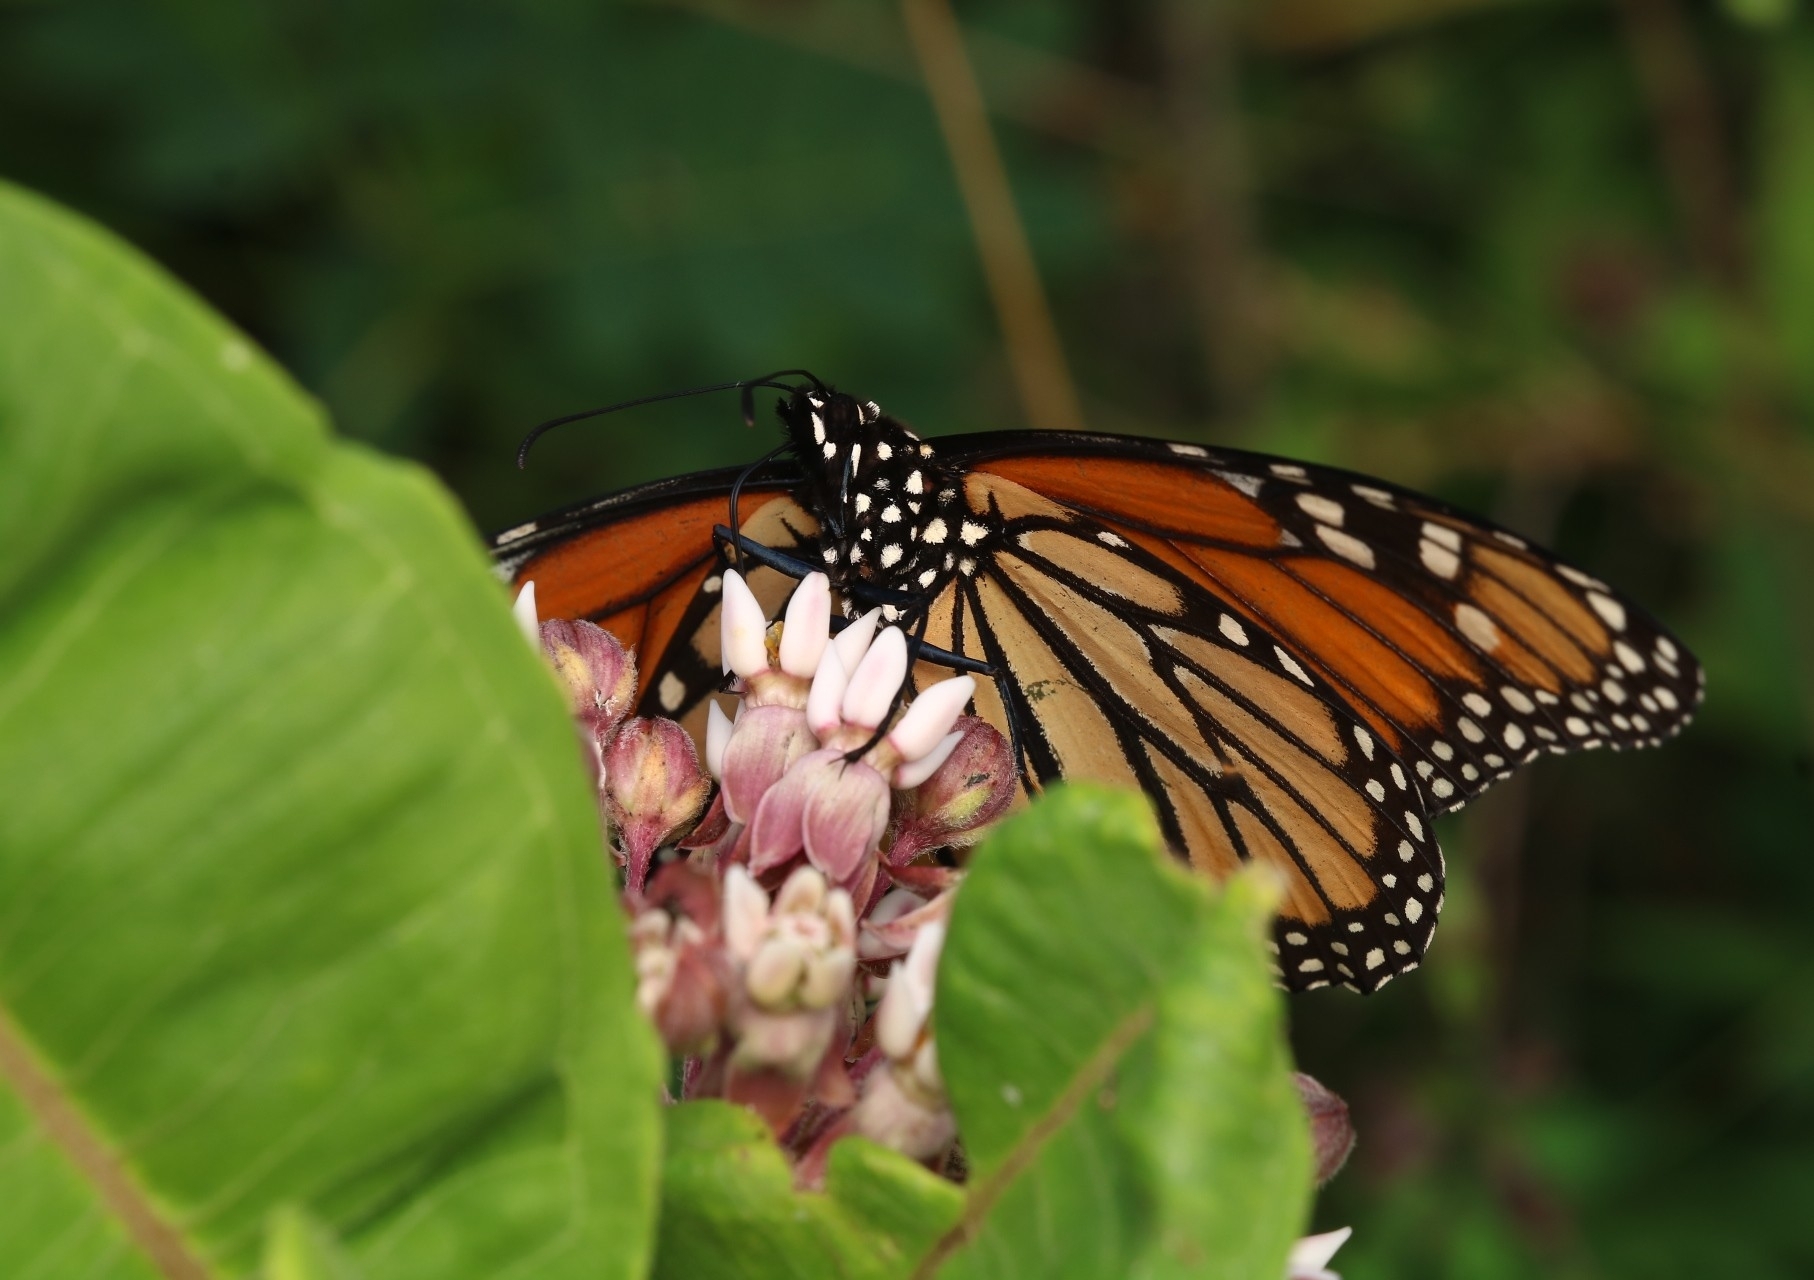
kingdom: Animalia
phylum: Arthropoda
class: Insecta
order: Lepidoptera
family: Nymphalidae
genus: Danaus
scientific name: Danaus plexippus
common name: Monarch
